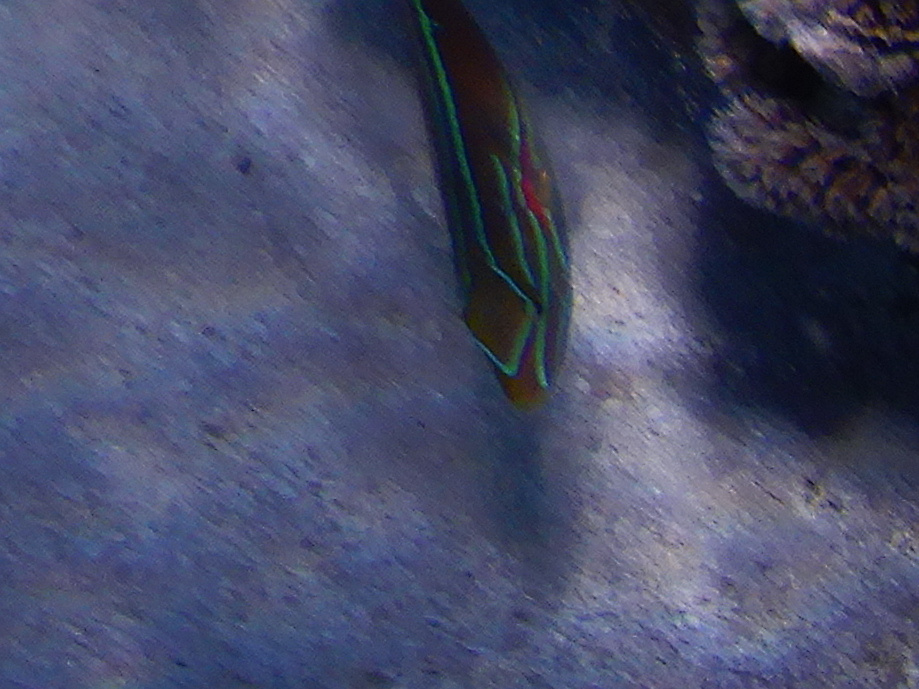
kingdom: Animalia
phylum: Chordata
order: Perciformes
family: Labridae
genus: Stethojulis
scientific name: Stethojulis bandanensis
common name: Red shoulder wrasse
